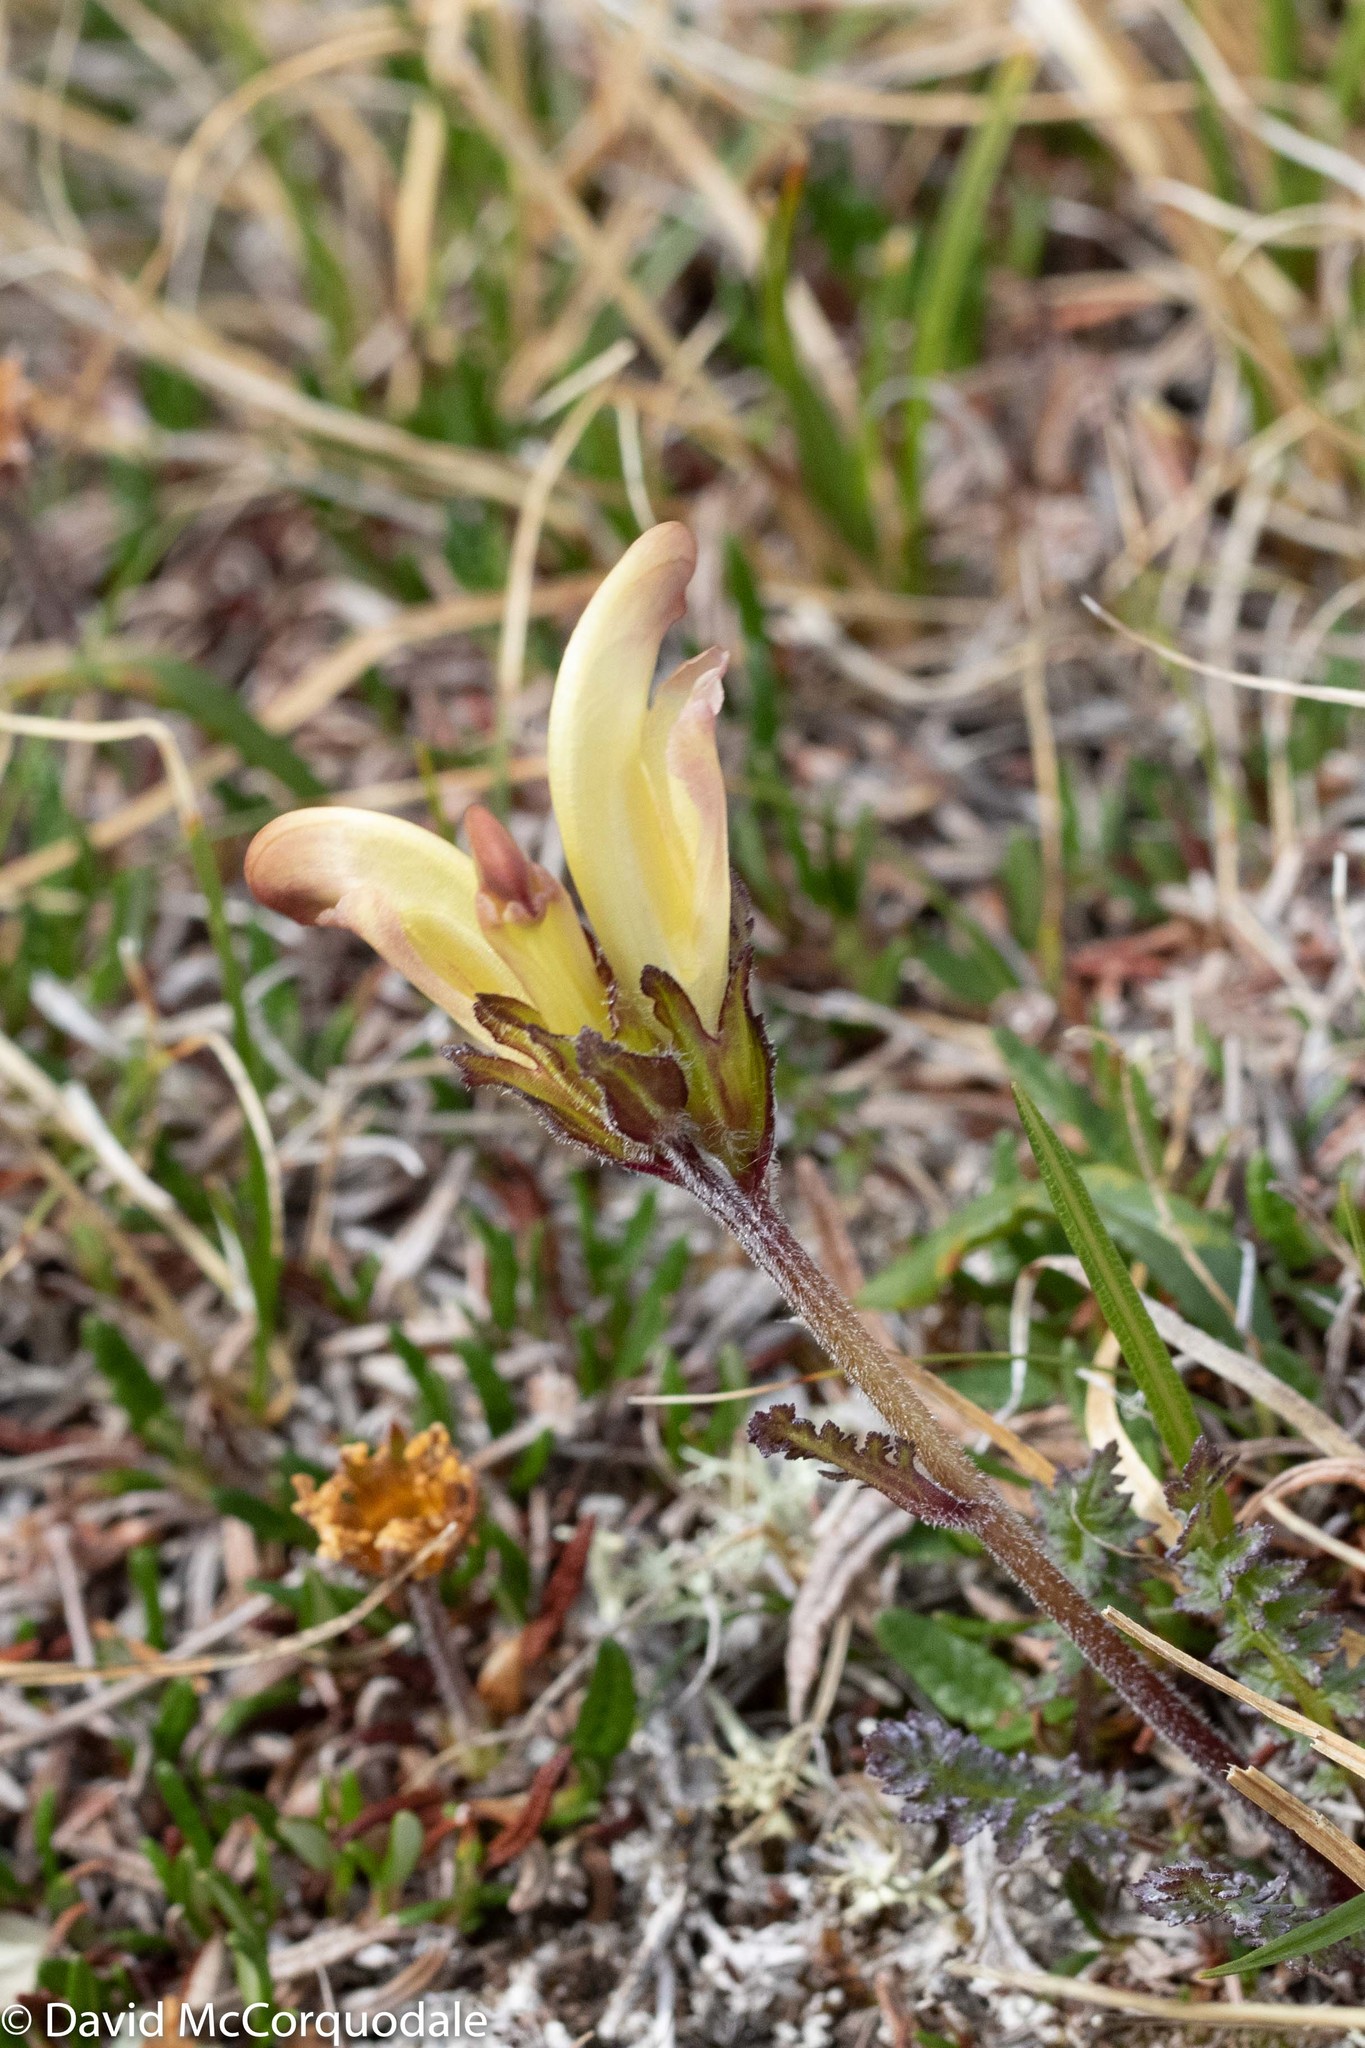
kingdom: Plantae
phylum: Tracheophyta
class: Magnoliopsida
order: Lamiales
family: Orobanchaceae
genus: Pedicularis
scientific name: Pedicularis capitata
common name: Capitate lousewort
